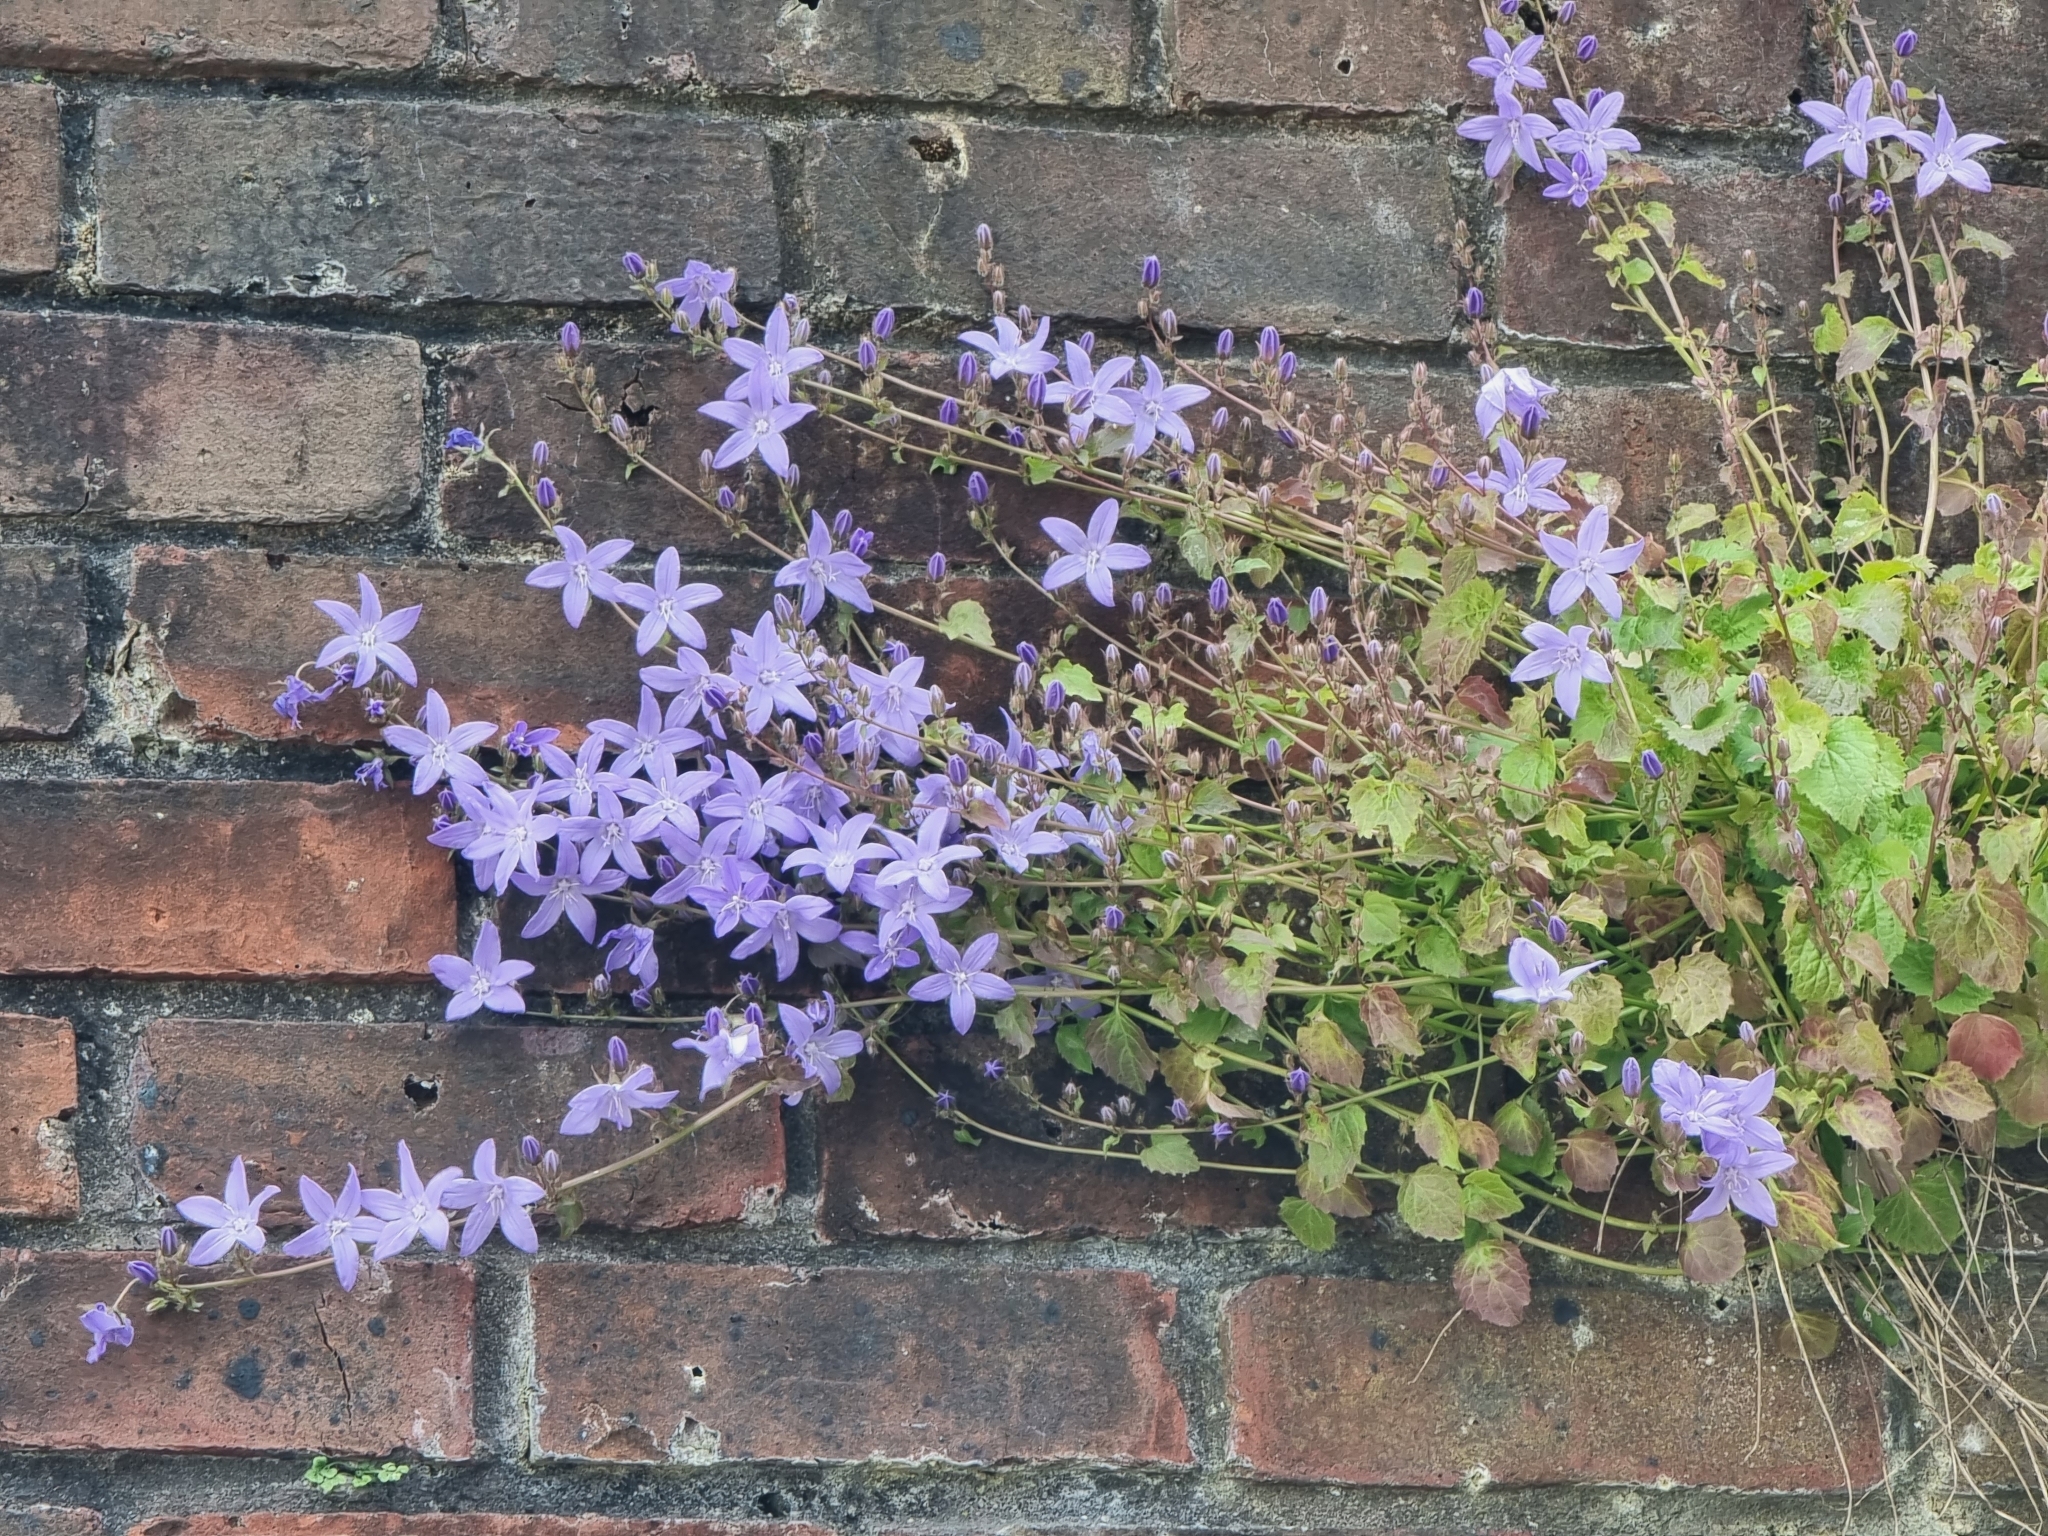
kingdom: Plantae
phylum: Tracheophyta
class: Magnoliopsida
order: Asterales
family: Campanulaceae
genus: Campanula
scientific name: Campanula poscharskyana
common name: Trailing bellflower
